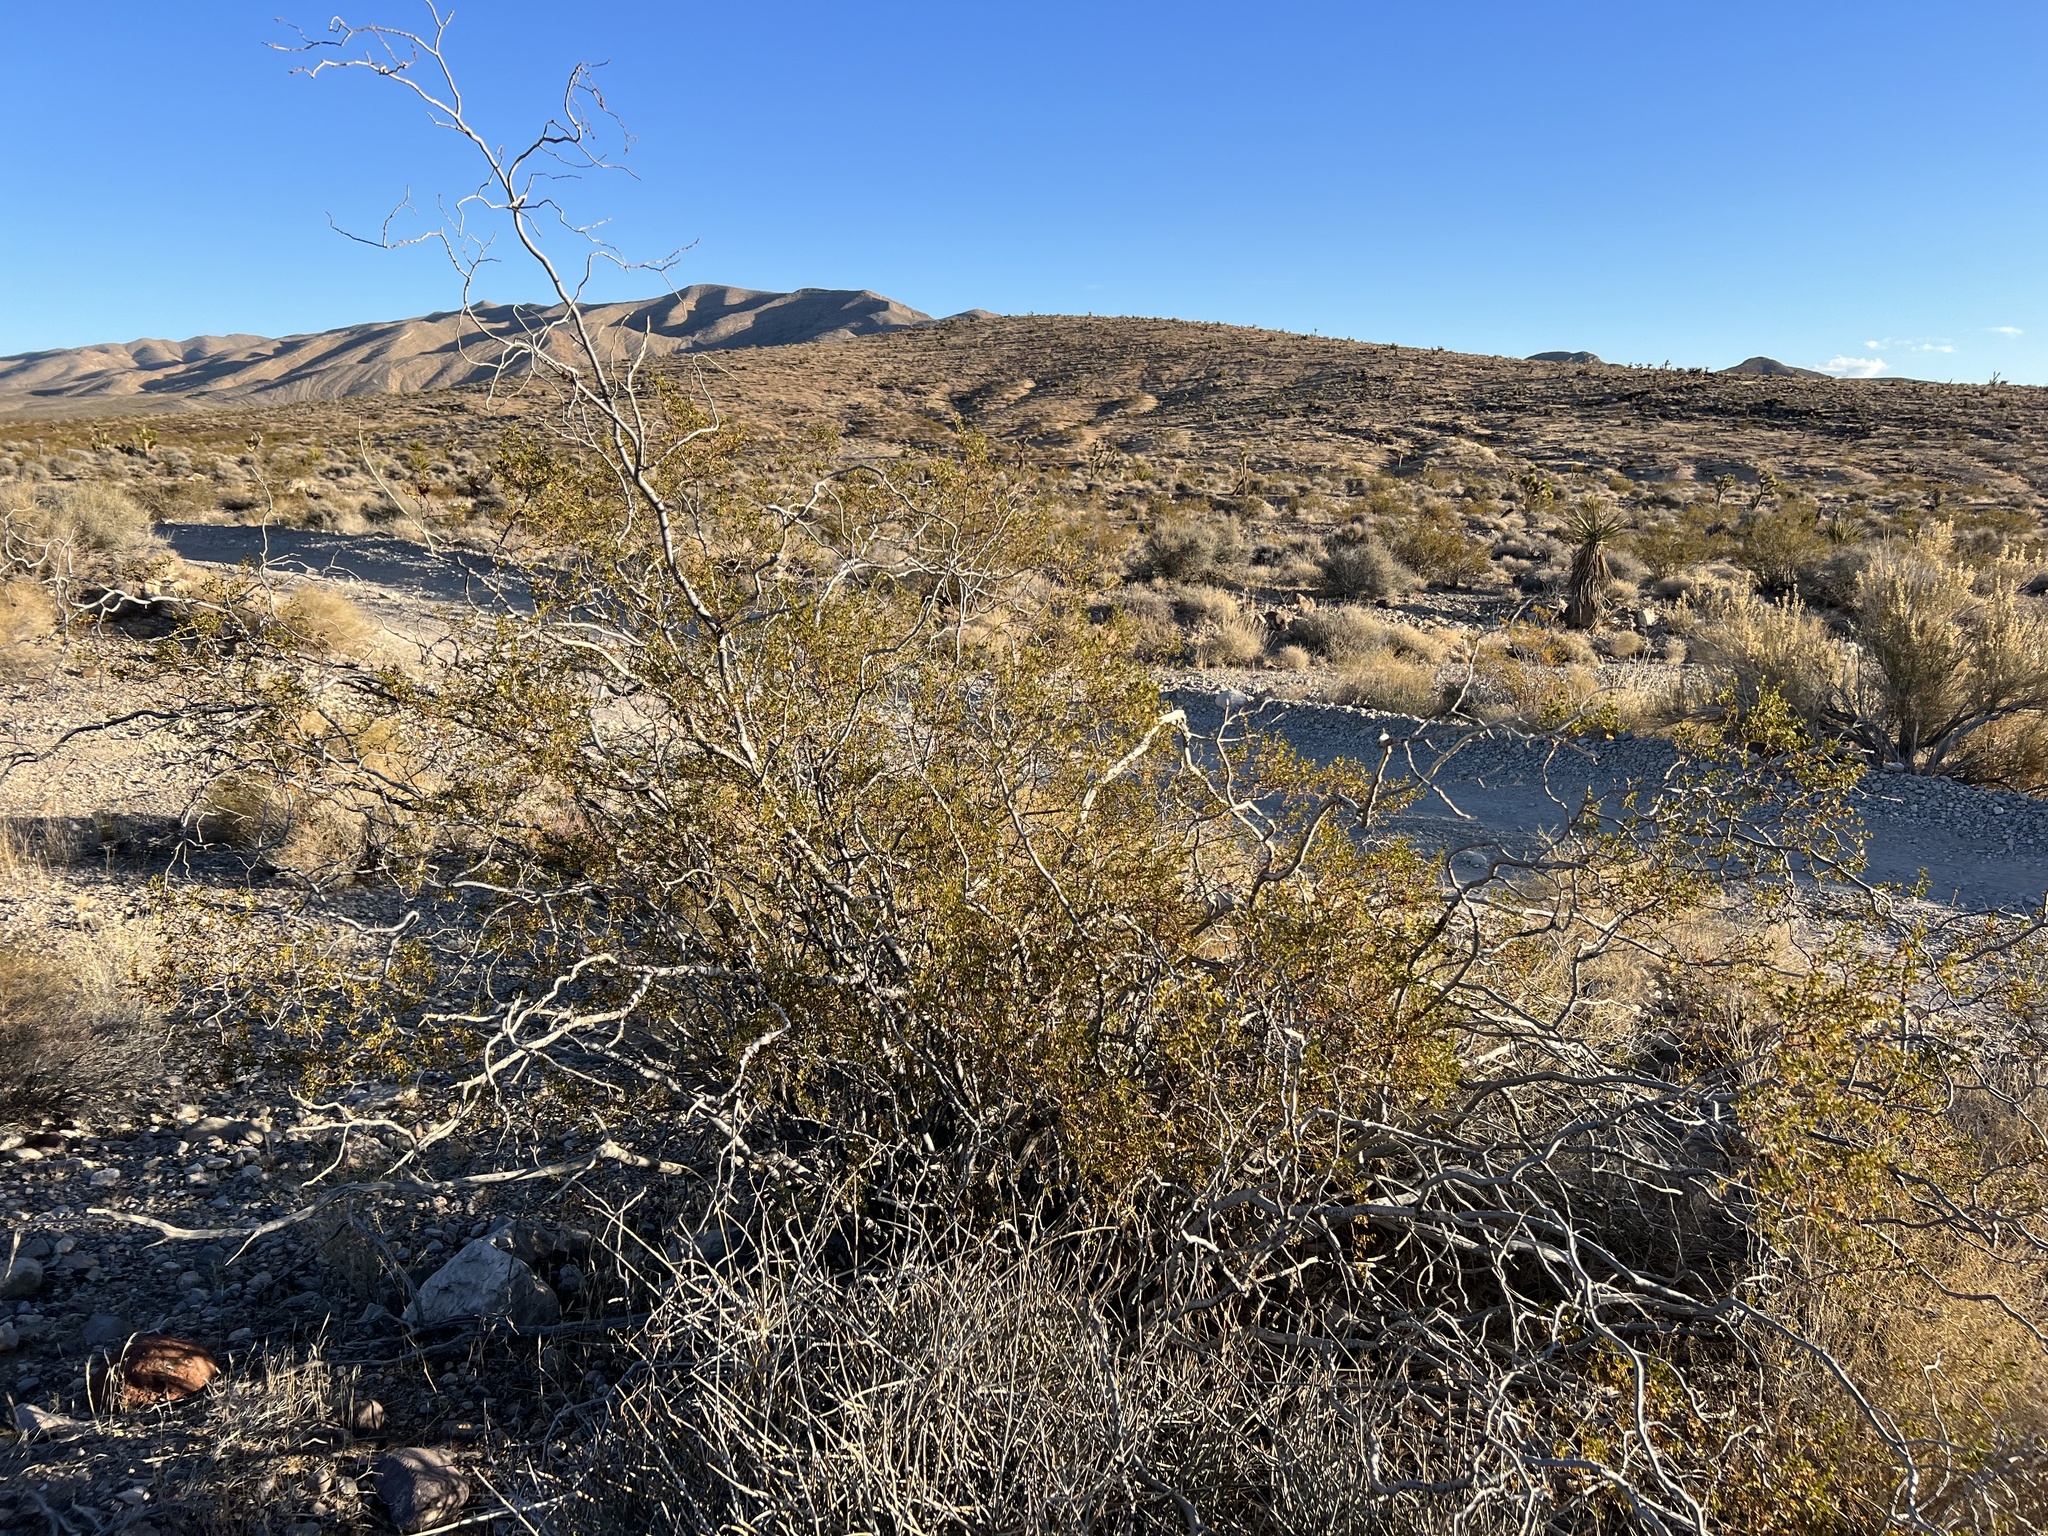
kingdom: Plantae
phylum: Tracheophyta
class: Magnoliopsida
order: Zygophyllales
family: Zygophyllaceae
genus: Larrea
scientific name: Larrea tridentata
